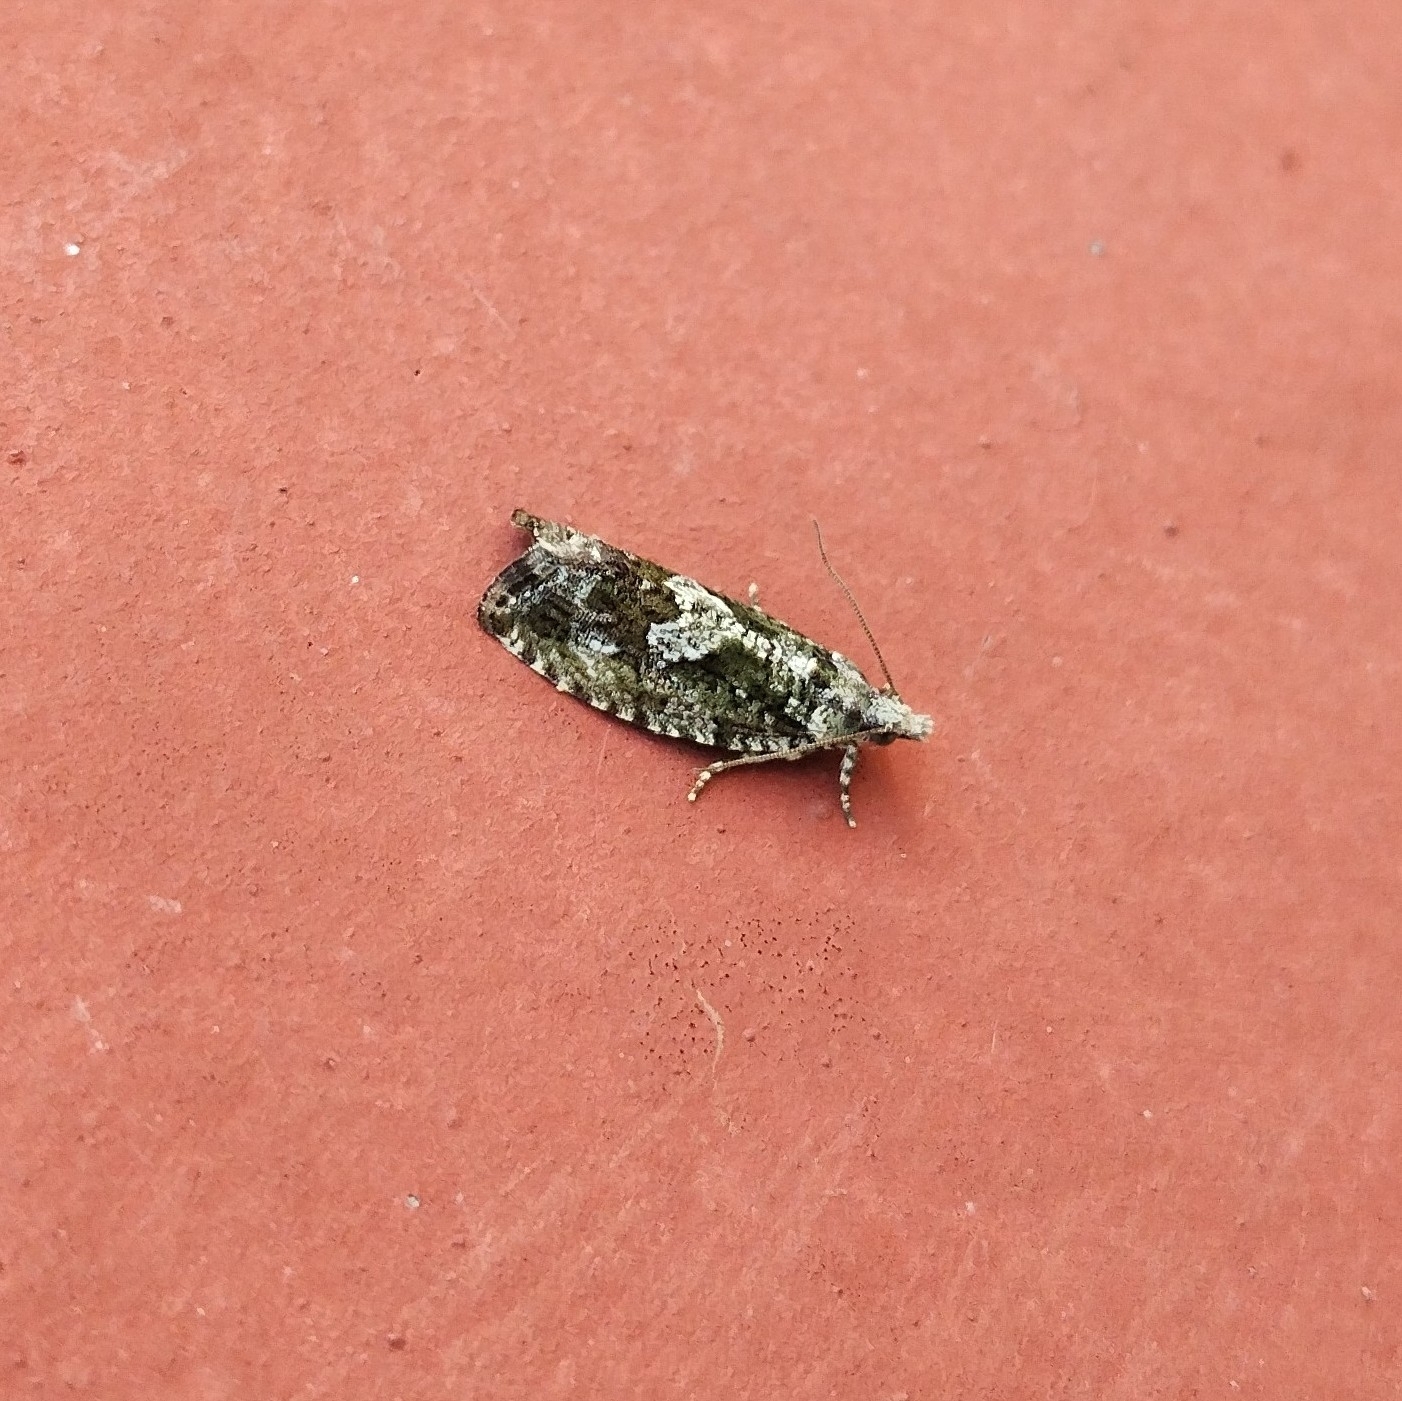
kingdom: Animalia
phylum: Arthropoda
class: Insecta
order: Lepidoptera
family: Tortricidae
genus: Zeiraphera
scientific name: Zeiraphera isertana
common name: Cock's-head bell
